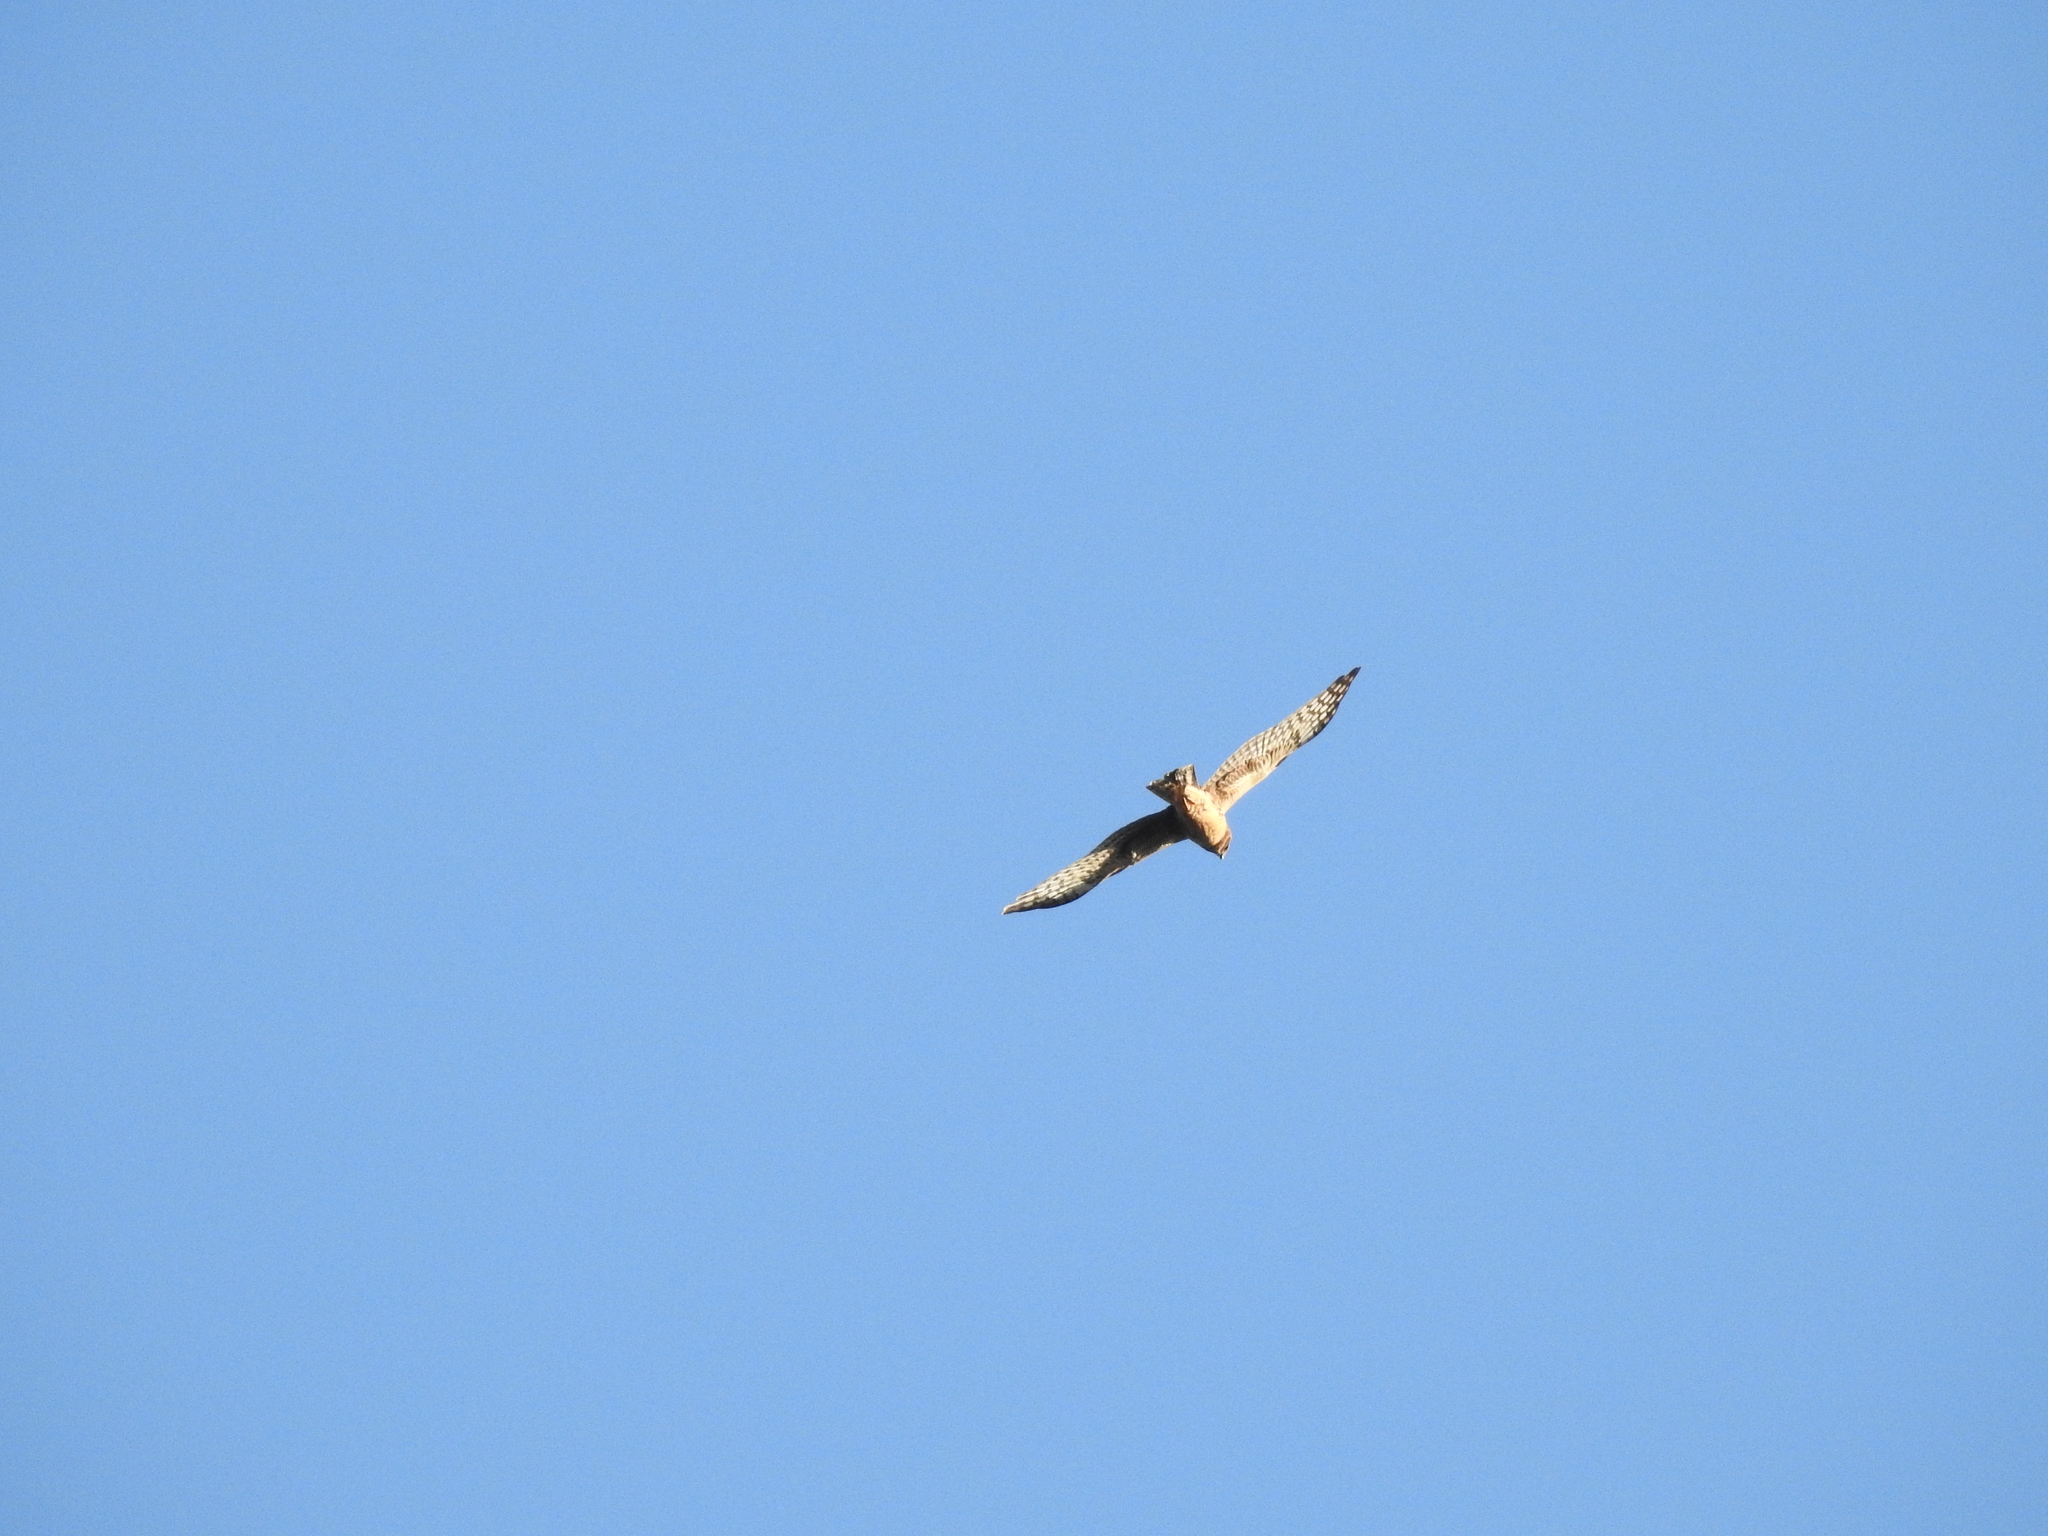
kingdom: Animalia
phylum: Chordata
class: Aves
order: Accipitriformes
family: Accipitridae
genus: Circus
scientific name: Circus cyaneus
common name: Hen harrier
